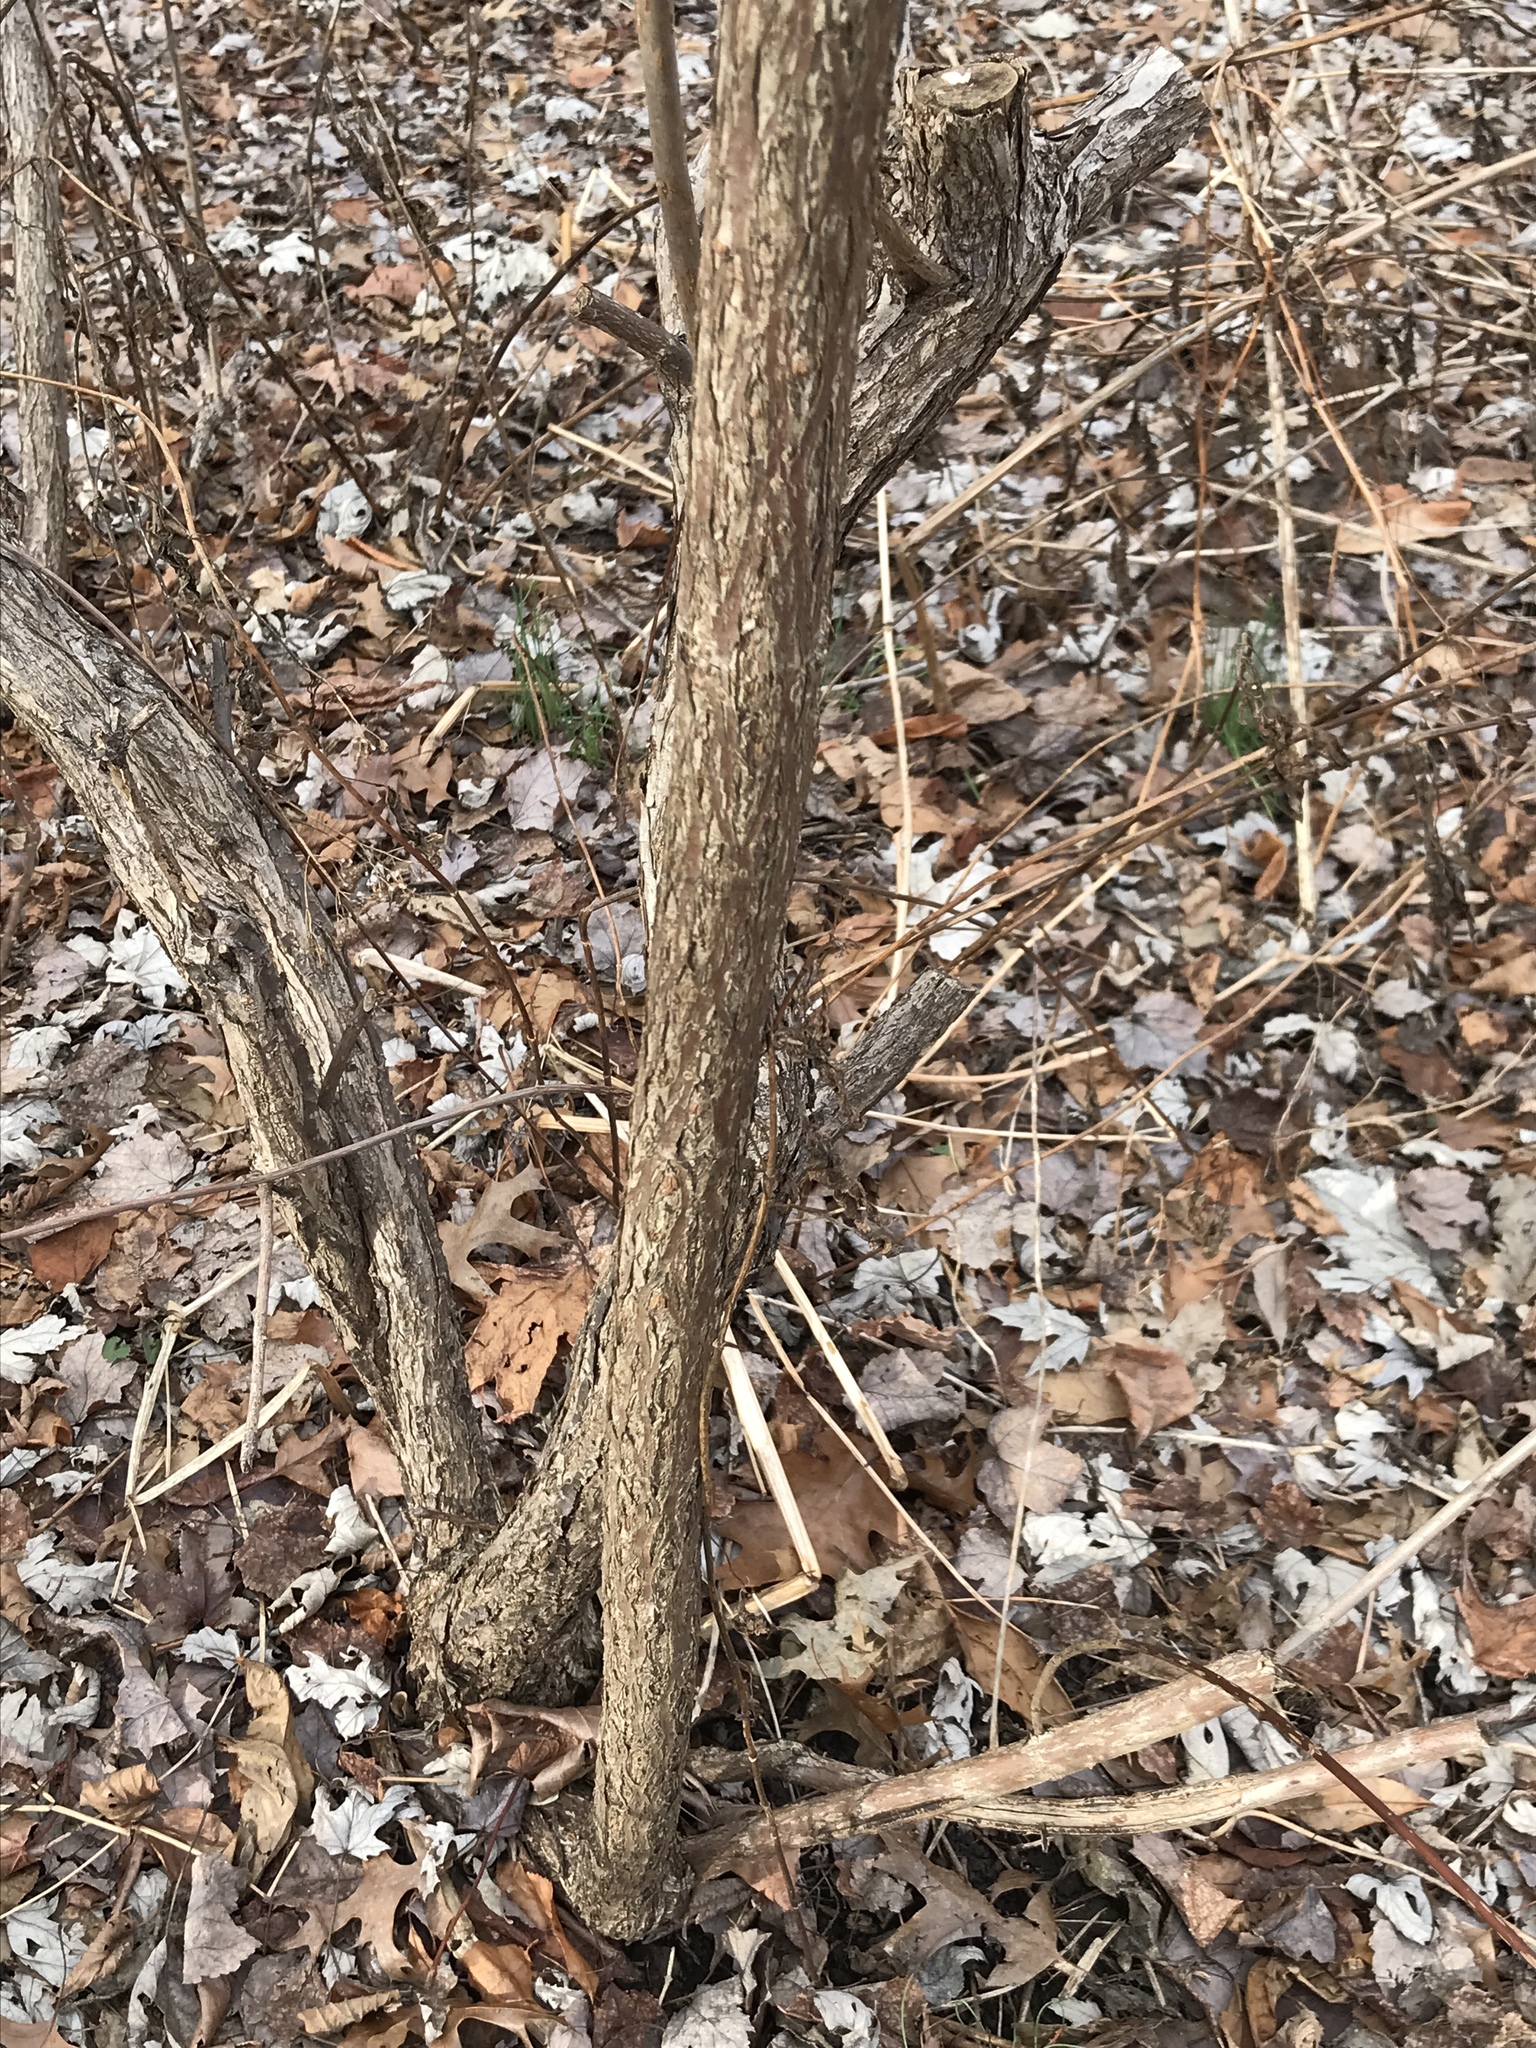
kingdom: Plantae
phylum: Tracheophyta
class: Magnoliopsida
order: Gentianales
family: Rubiaceae
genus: Cephalanthus
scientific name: Cephalanthus occidentalis
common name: Button-willow
